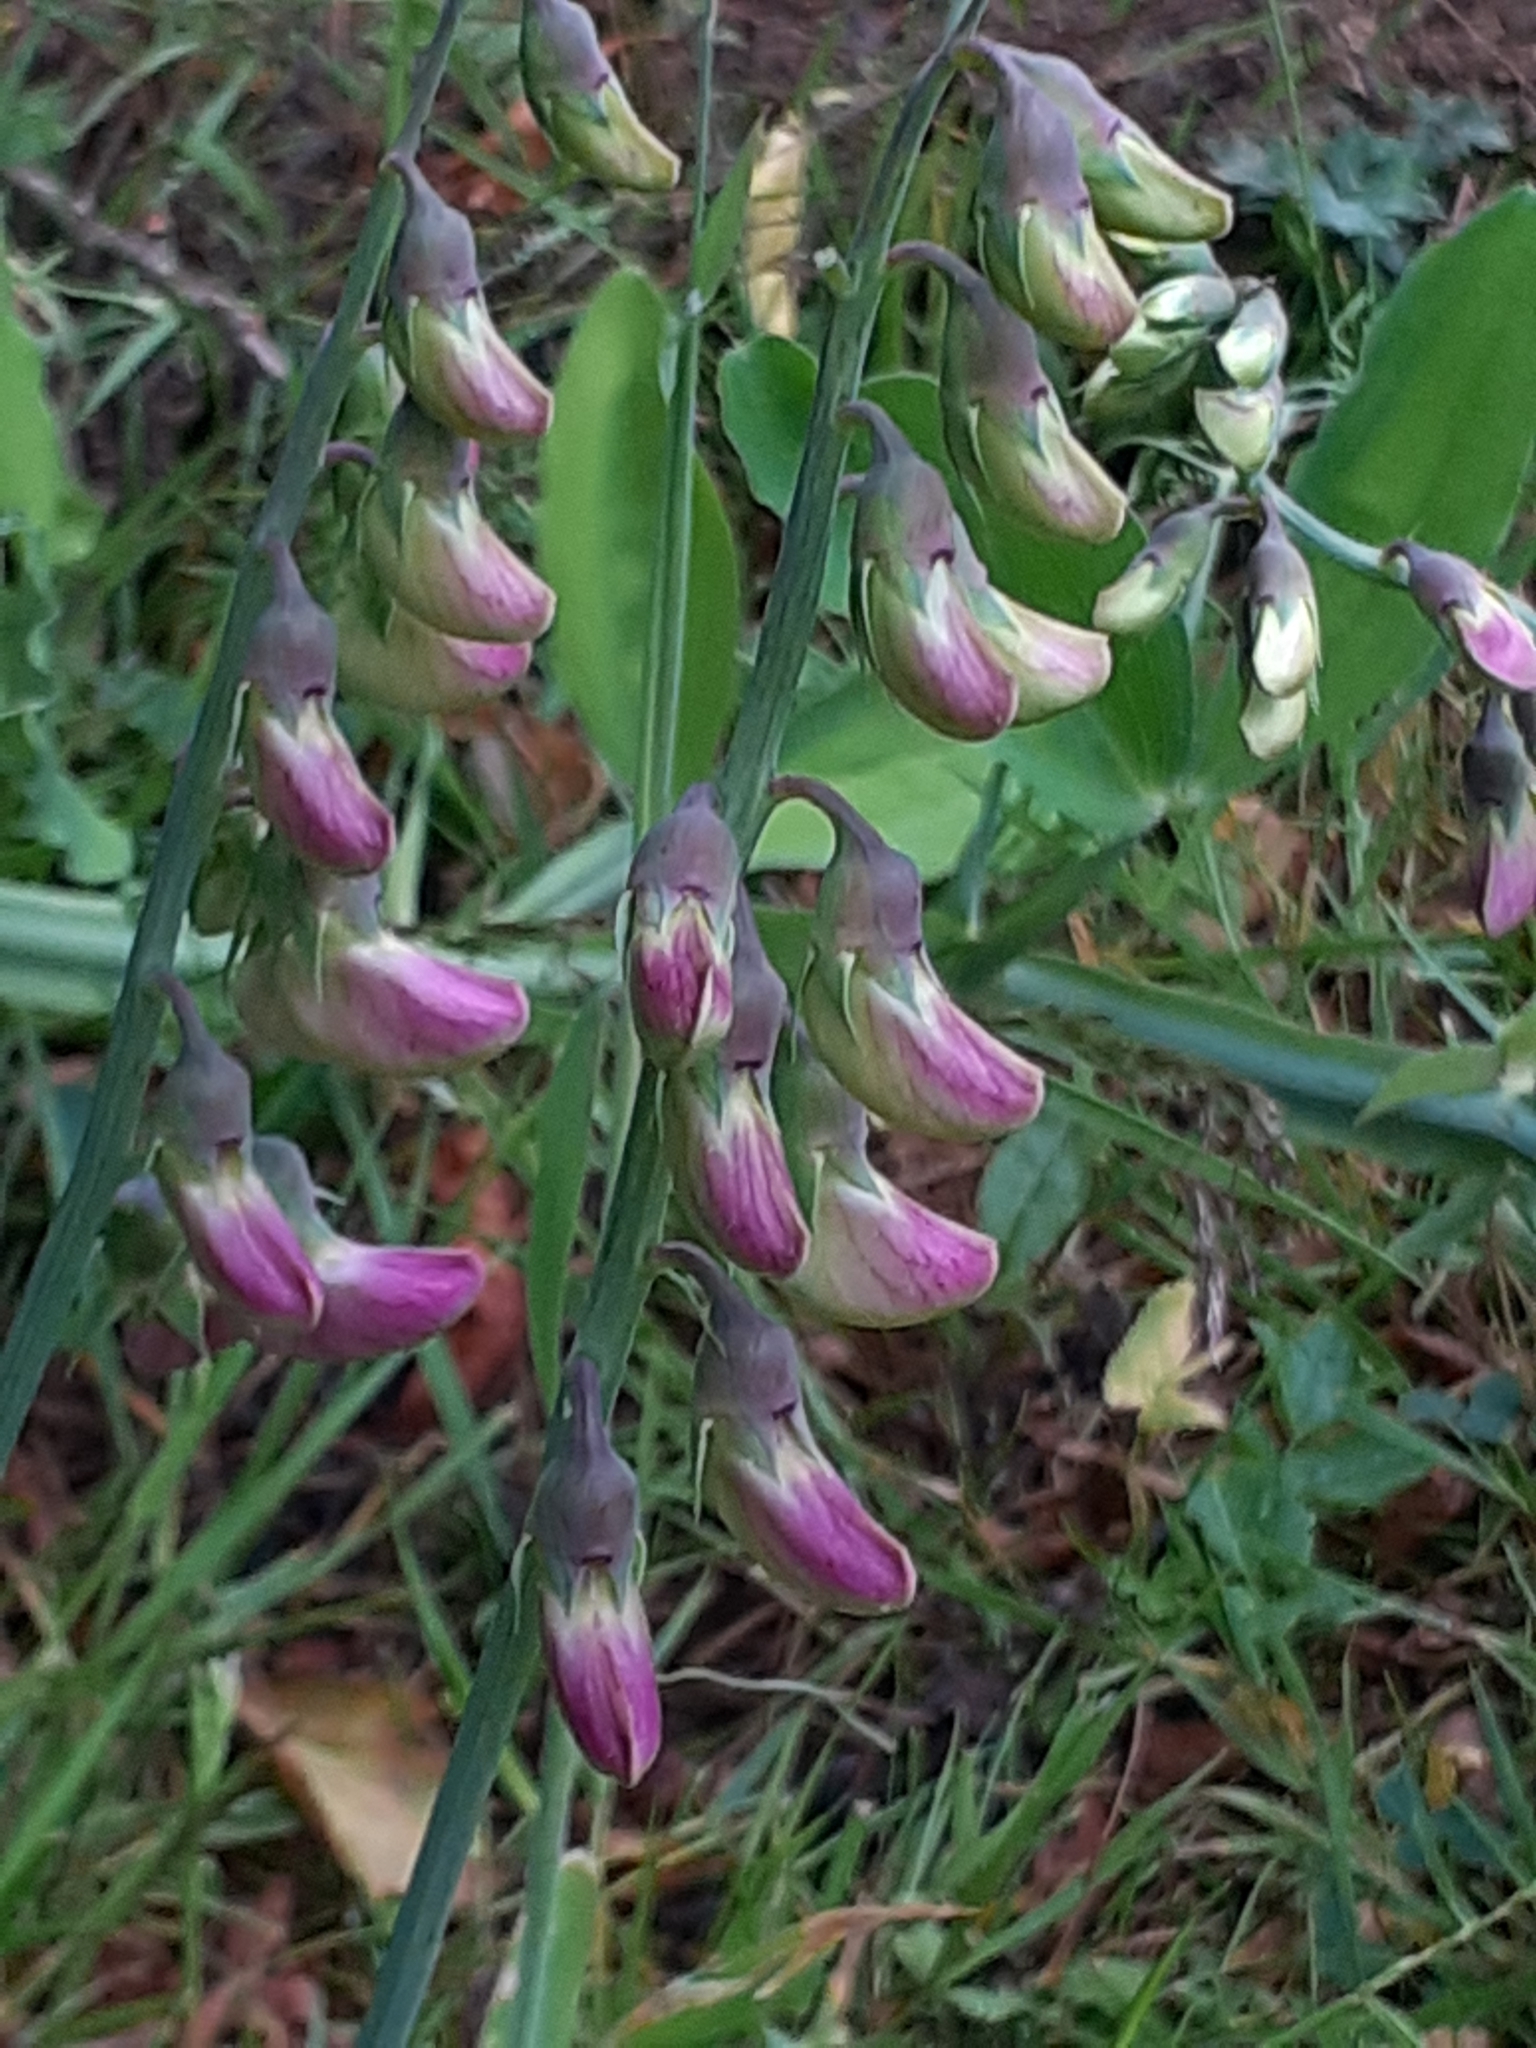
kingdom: Plantae
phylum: Tracheophyta
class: Magnoliopsida
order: Fabales
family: Fabaceae
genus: Lathyrus
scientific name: Lathyrus latifolius
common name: Perennial pea
